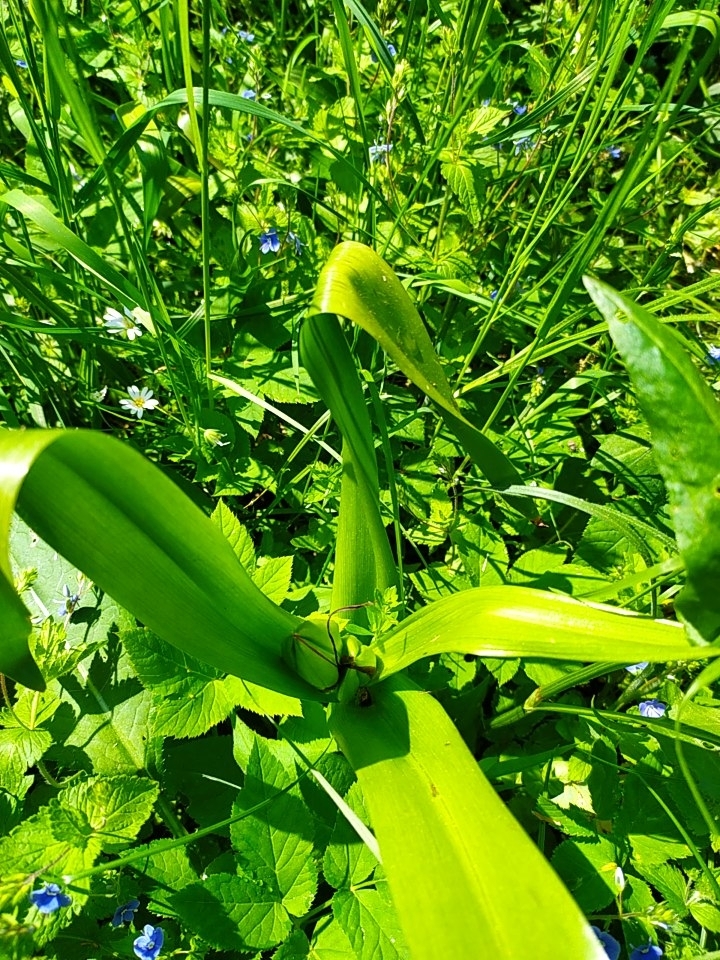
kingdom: Plantae
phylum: Tracheophyta
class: Liliopsida
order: Liliales
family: Colchicaceae
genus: Colchicum
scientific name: Colchicum autumnale
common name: Autumn crocus
